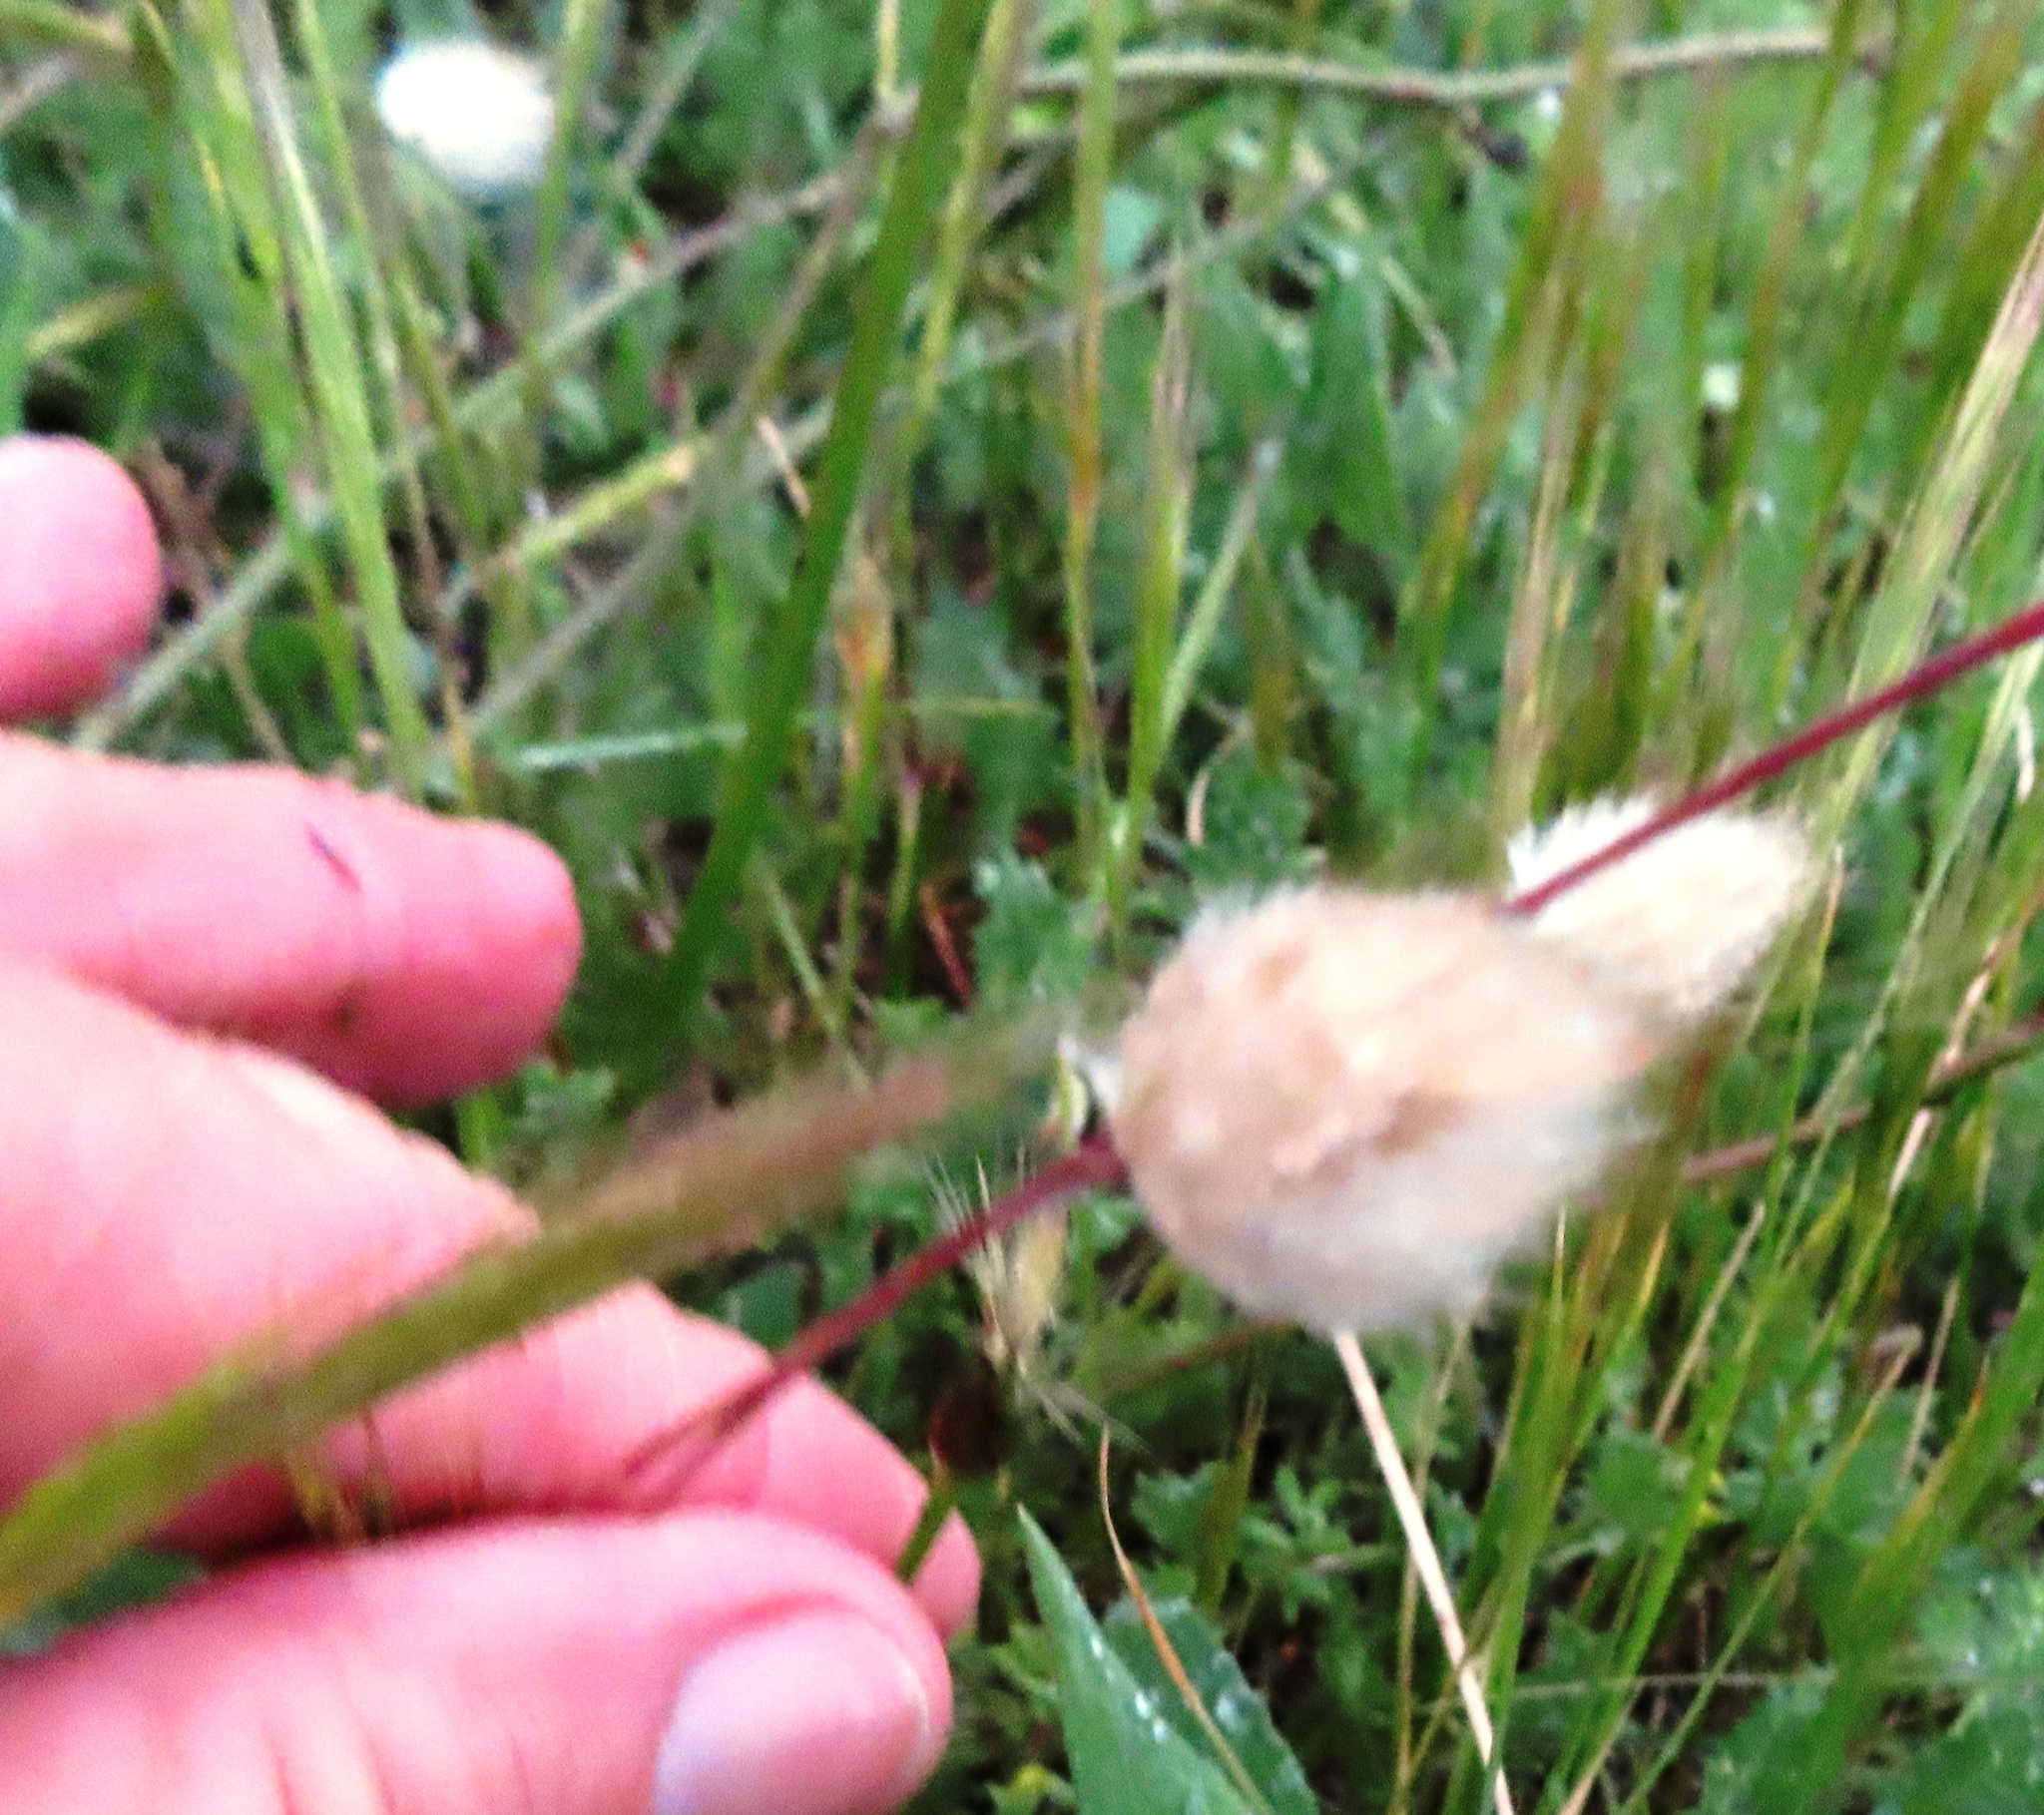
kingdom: Plantae
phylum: Tracheophyta
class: Liliopsida
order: Poales
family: Poaceae
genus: Lagurus
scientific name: Lagurus ovatus
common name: Hare's-tail
